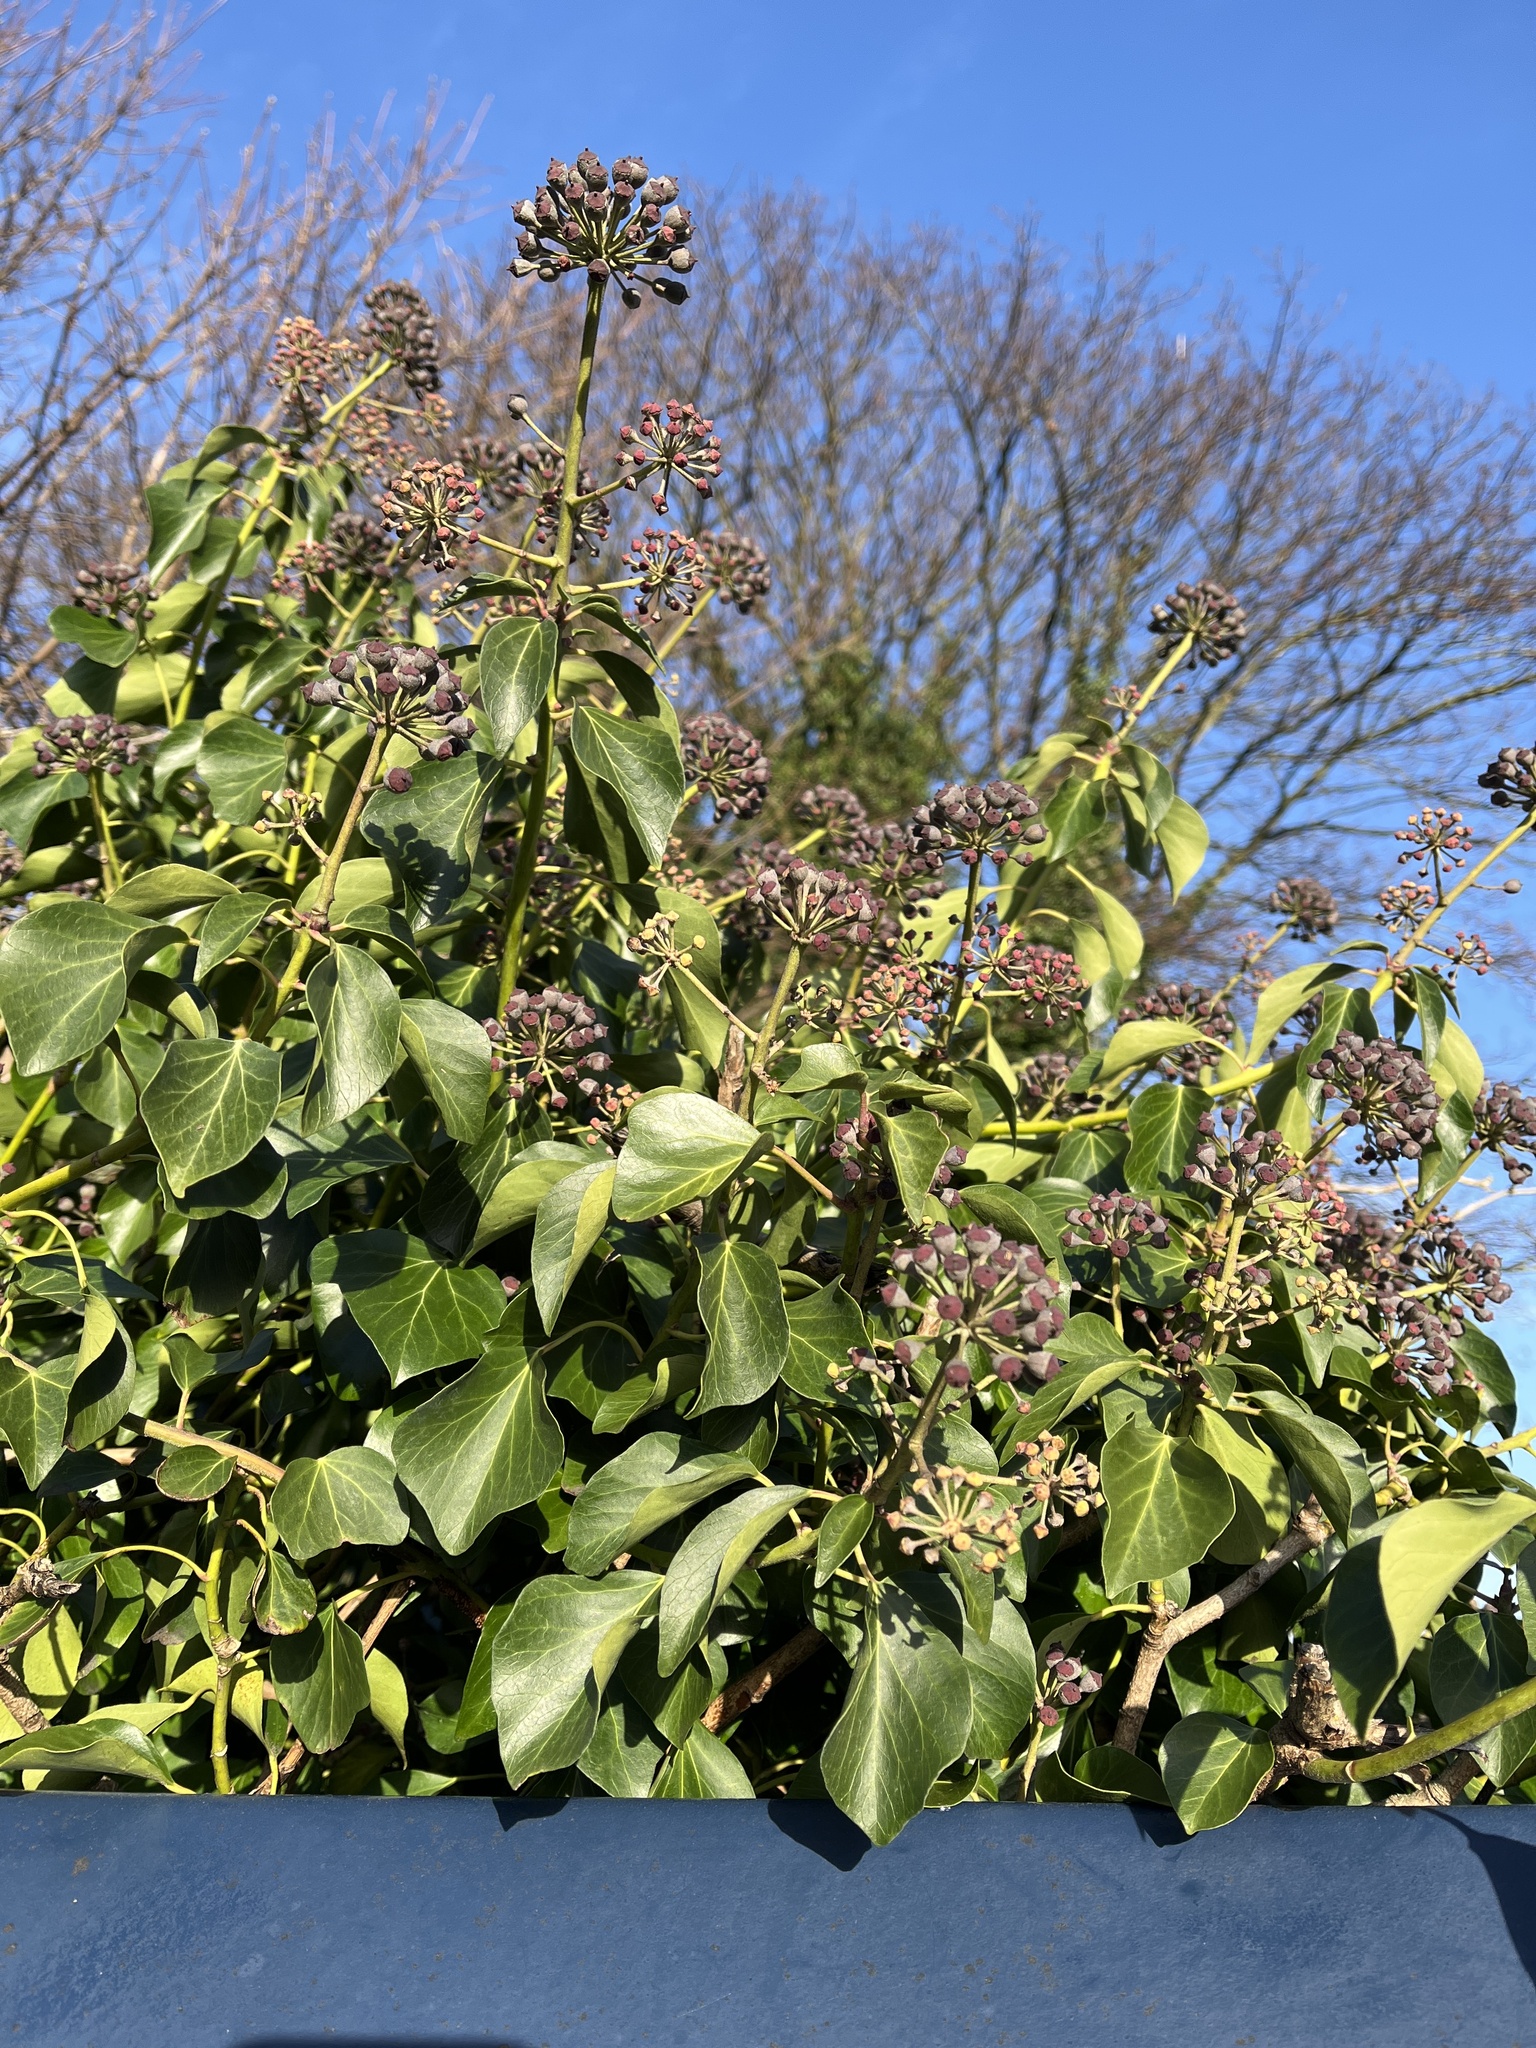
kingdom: Plantae
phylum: Tracheophyta
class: Magnoliopsida
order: Apiales
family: Araliaceae
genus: Hedera
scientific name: Hedera helix
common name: Ivy
